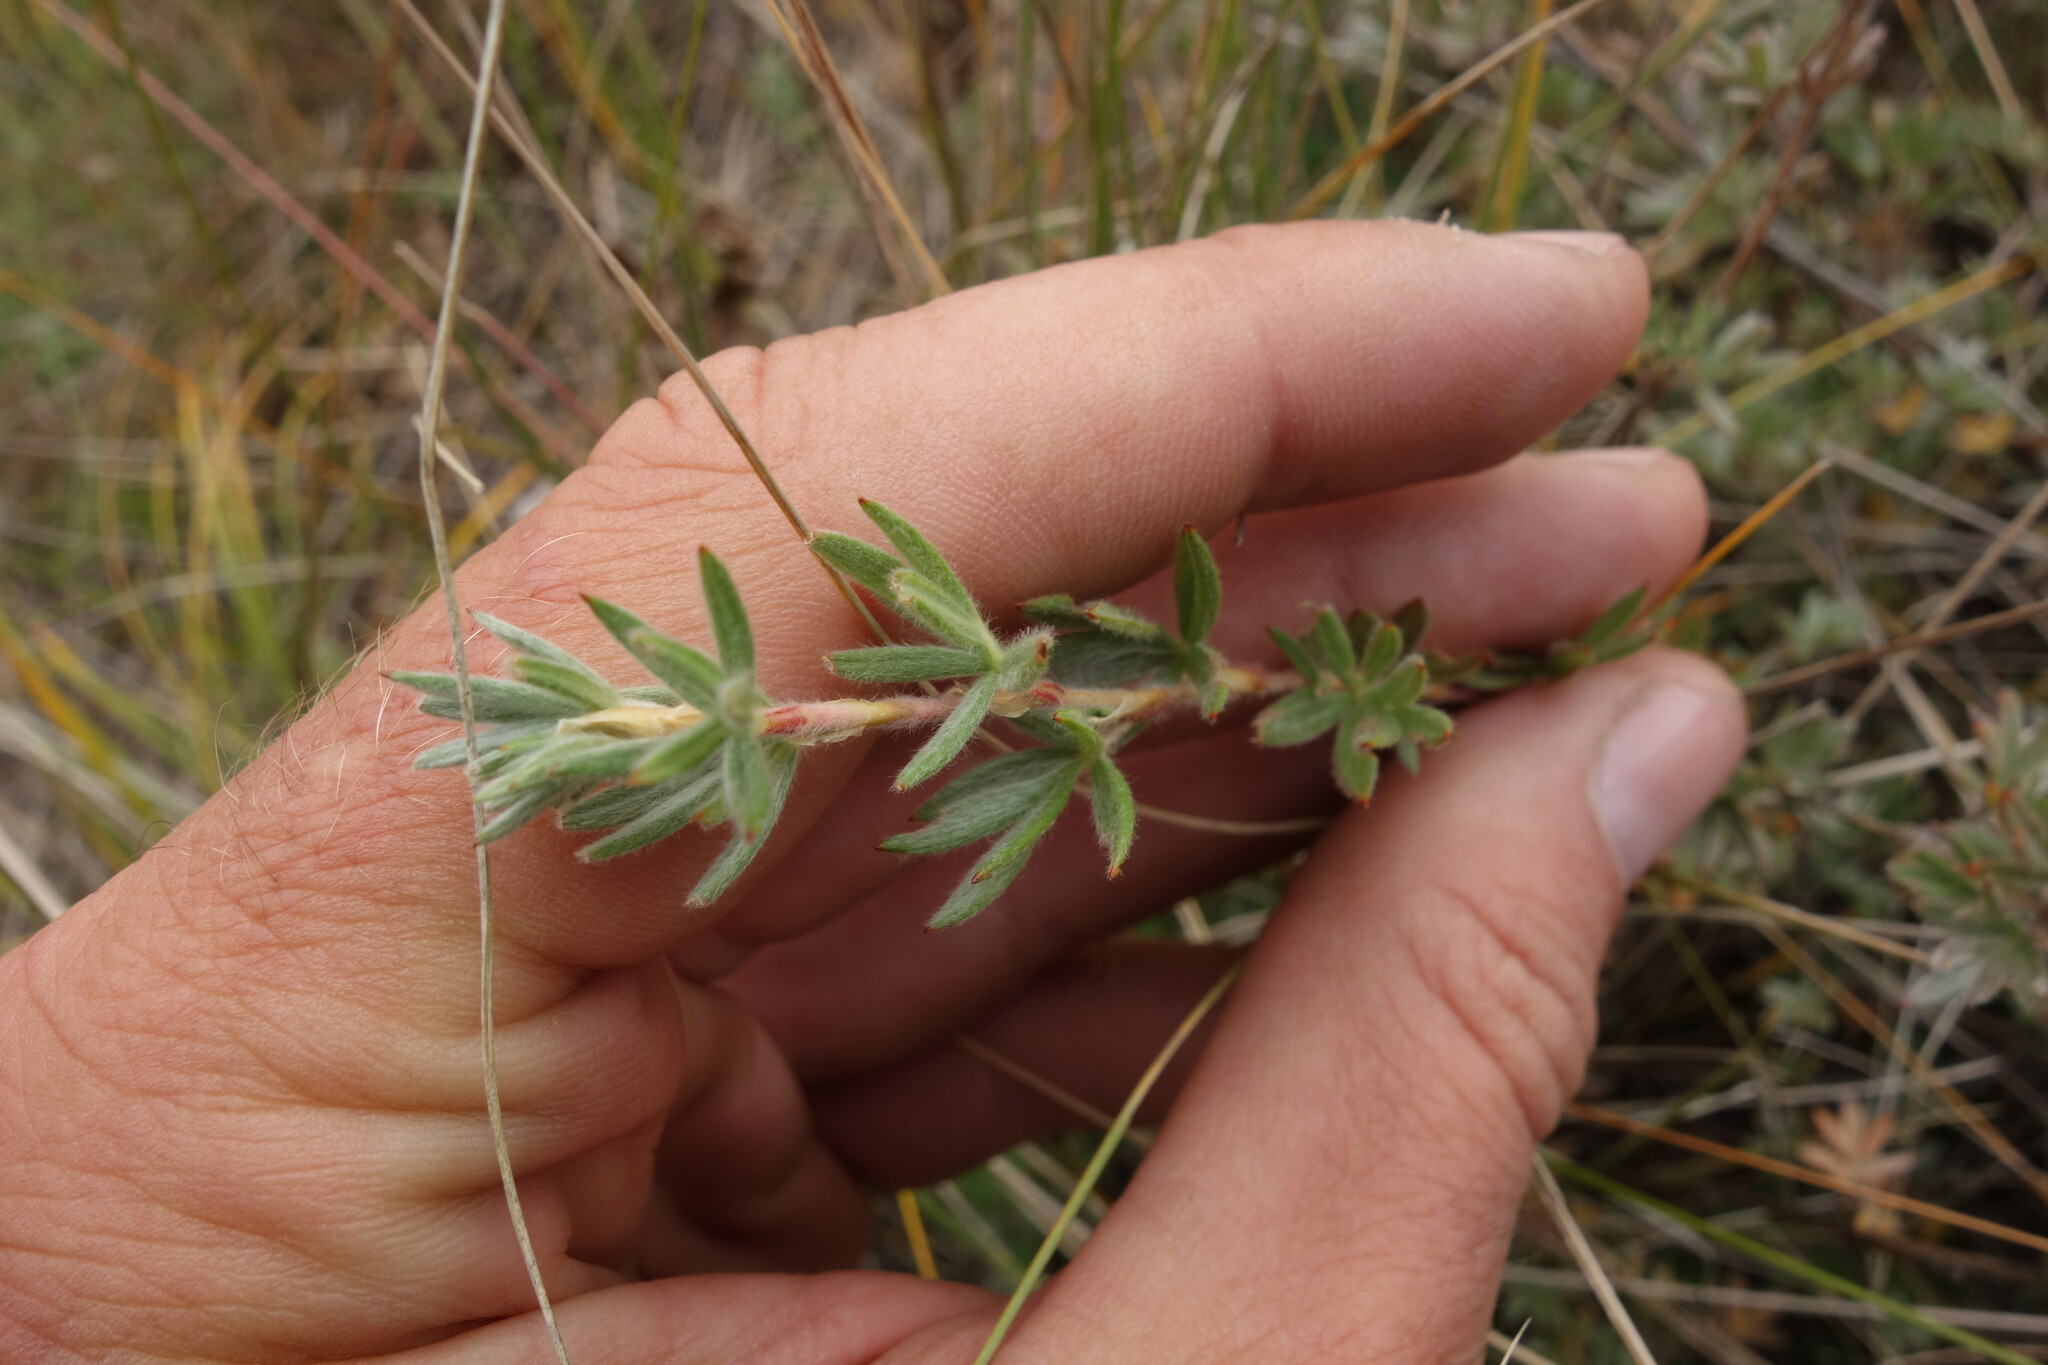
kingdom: Plantae
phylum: Tracheophyta
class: Magnoliopsida
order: Rosales
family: Rosaceae
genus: Dasiphora
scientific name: Dasiphora parvifolia
